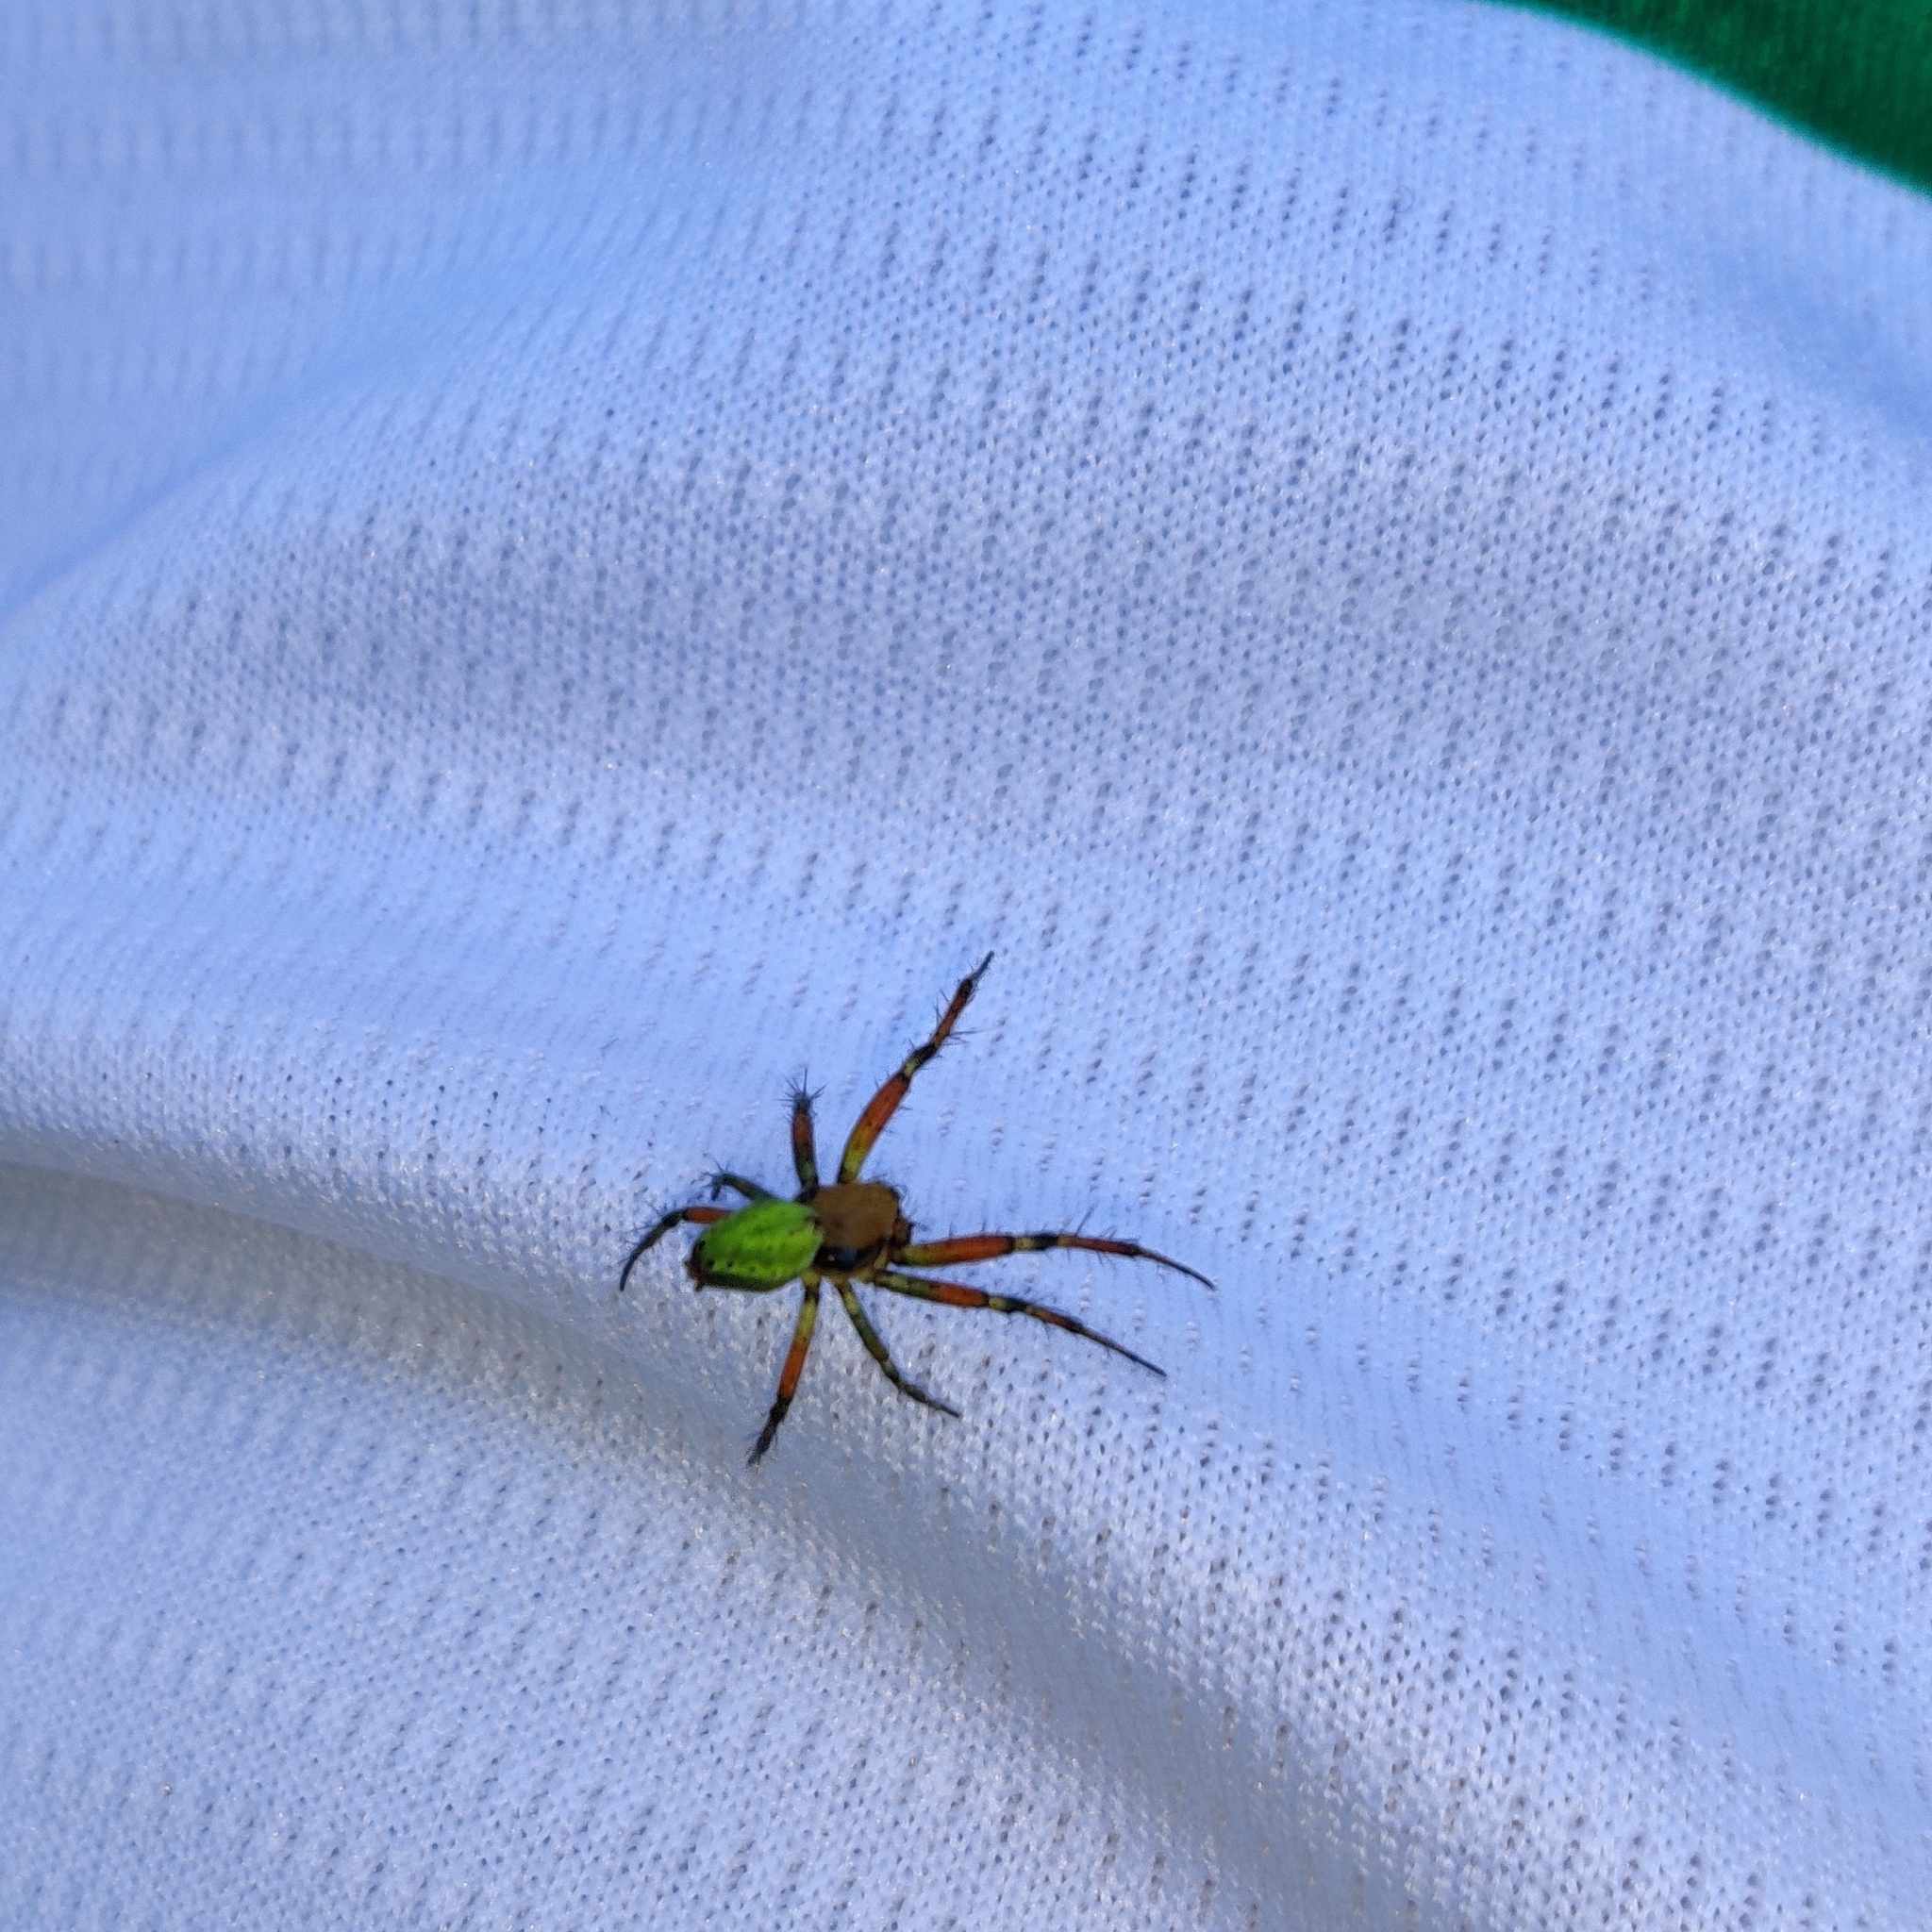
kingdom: Animalia
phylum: Arthropoda
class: Arachnida
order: Araneae
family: Araneidae
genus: Araniella
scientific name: Araniella
